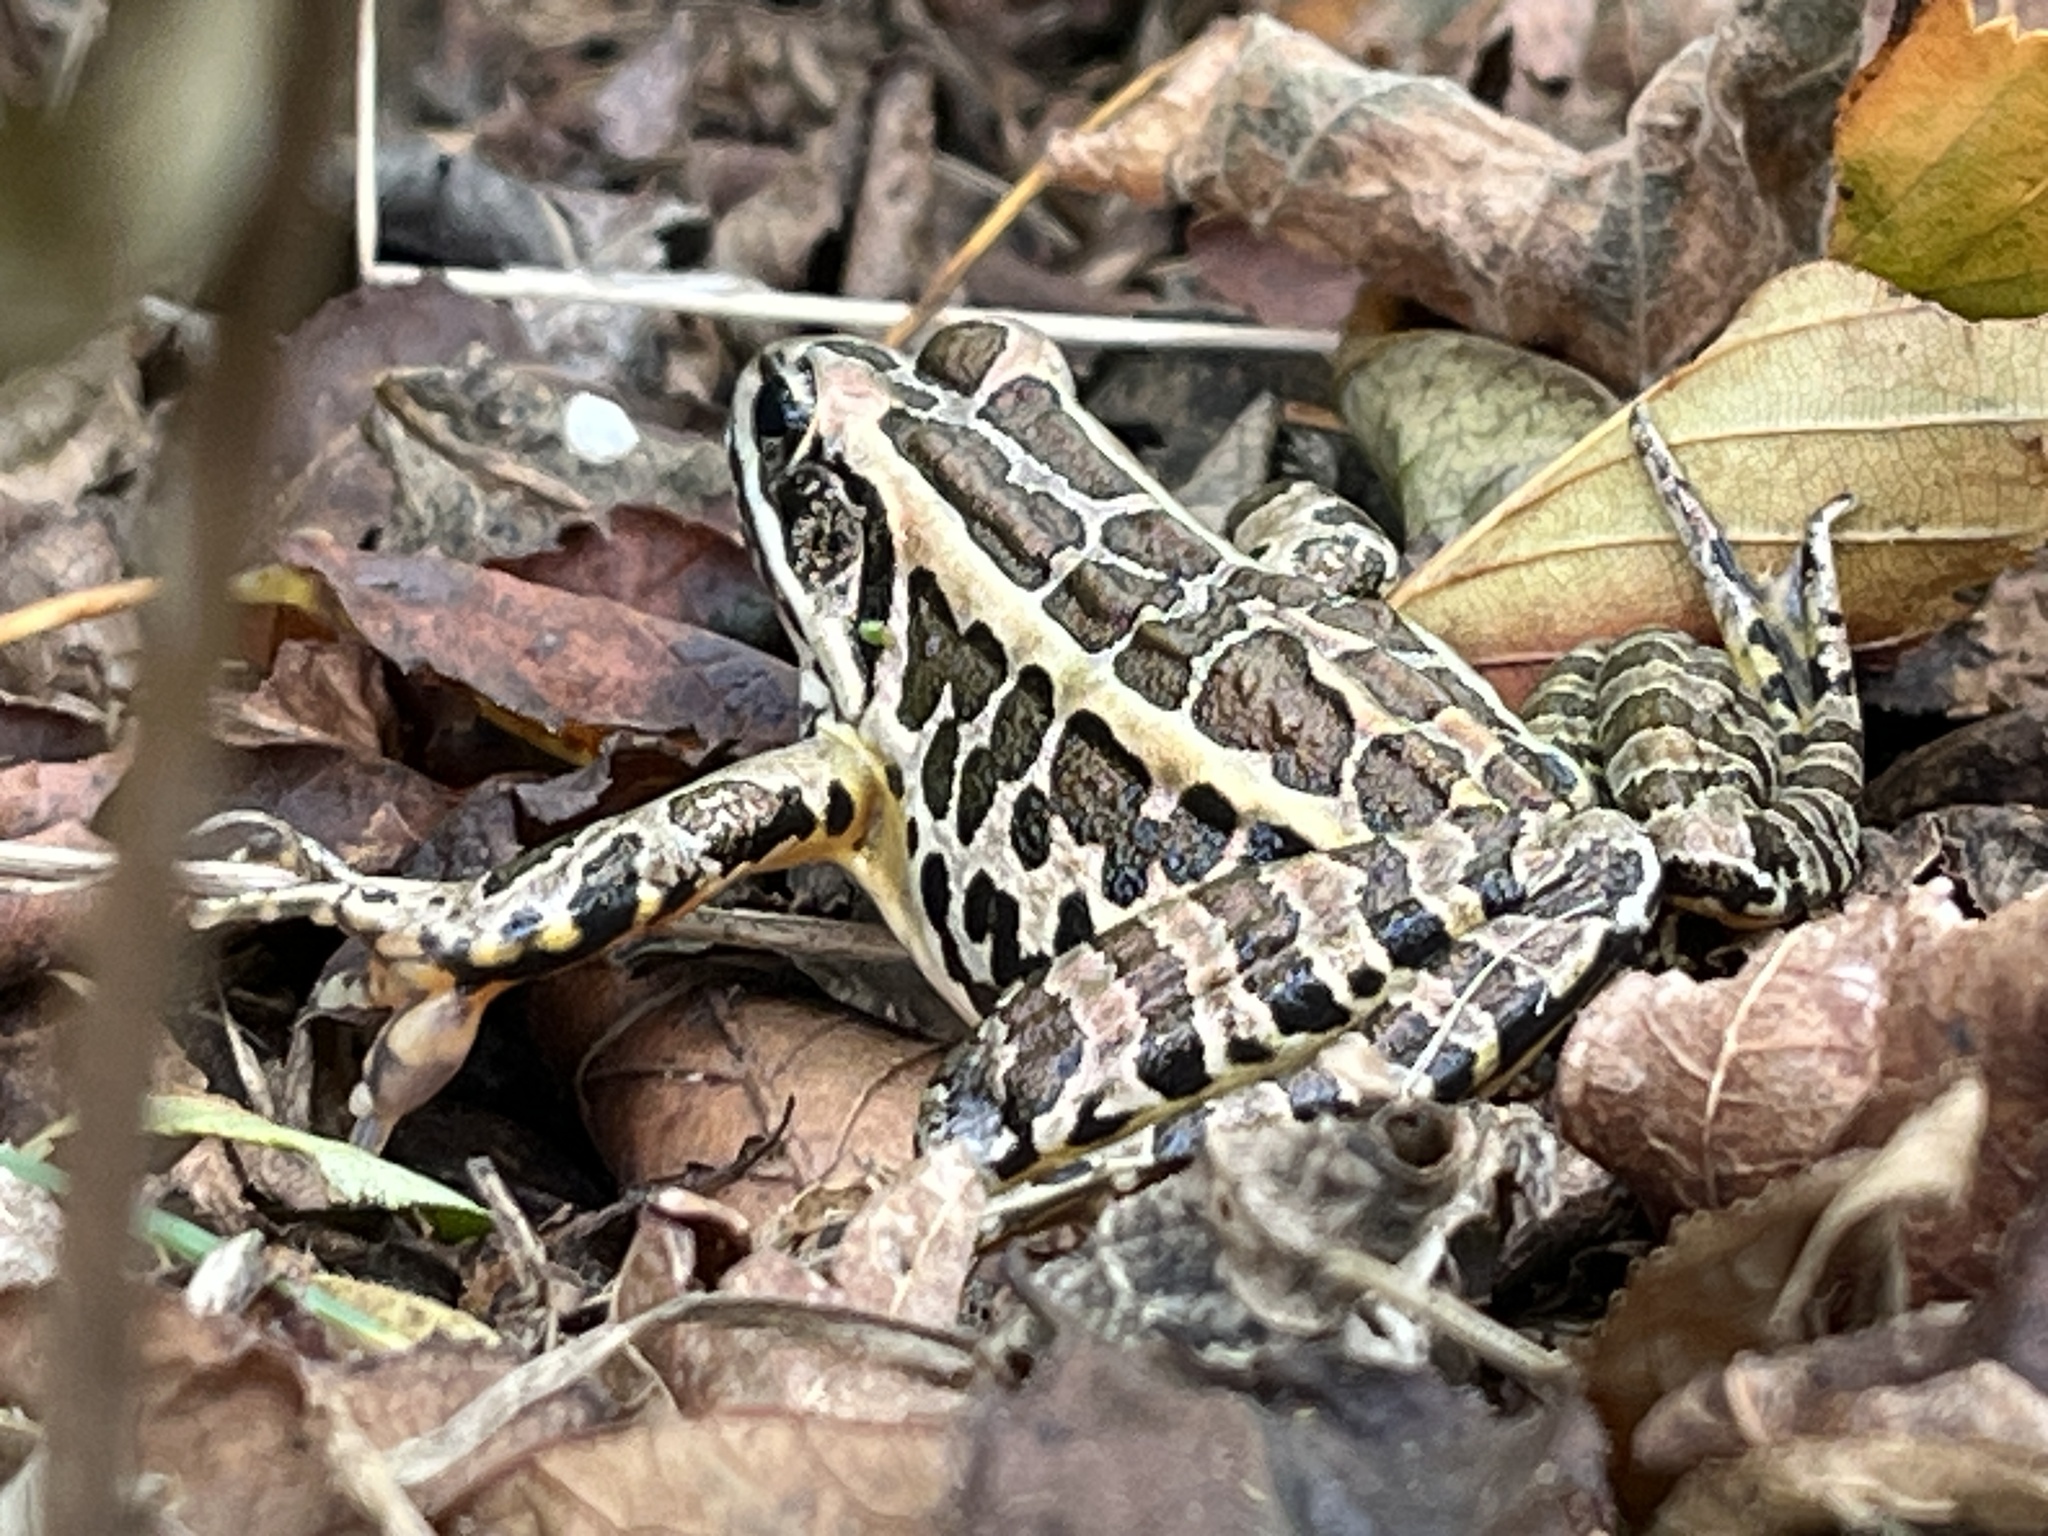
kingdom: Animalia
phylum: Chordata
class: Amphibia
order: Anura
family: Ranidae
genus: Lithobates
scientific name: Lithobates palustris
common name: Pickerel frog
